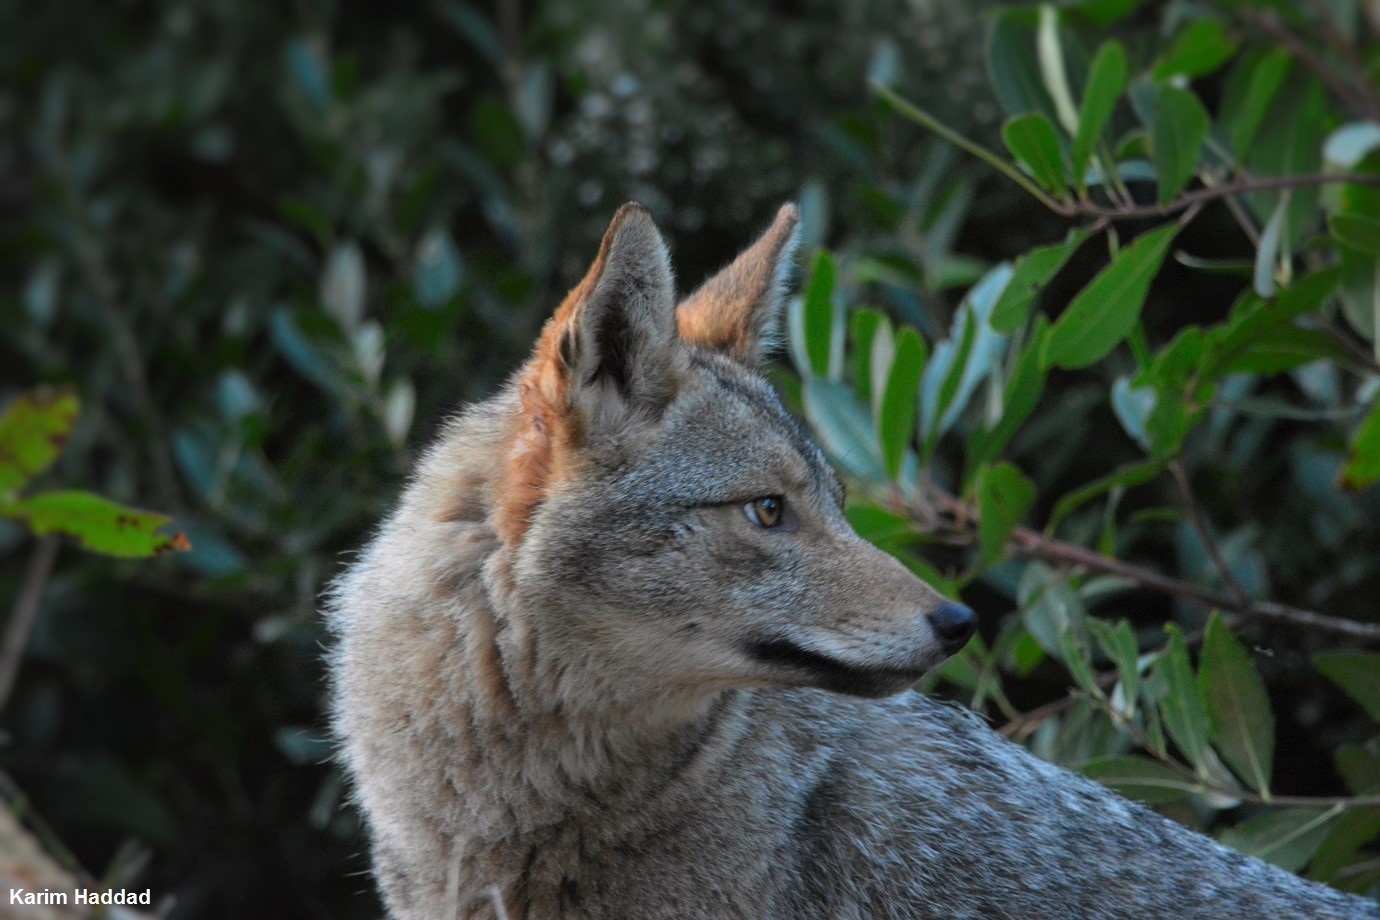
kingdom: Animalia
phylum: Chordata
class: Mammalia
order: Carnivora
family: Canidae
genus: Canis
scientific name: Canis lupaster
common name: African golden wolf
